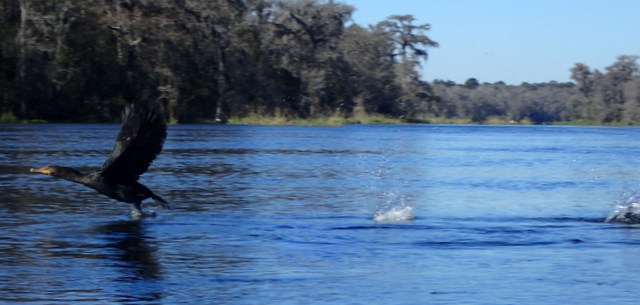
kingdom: Animalia
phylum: Chordata
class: Aves
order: Suliformes
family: Phalacrocoracidae
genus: Phalacrocorax
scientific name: Phalacrocorax auritus
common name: Double-crested cormorant
